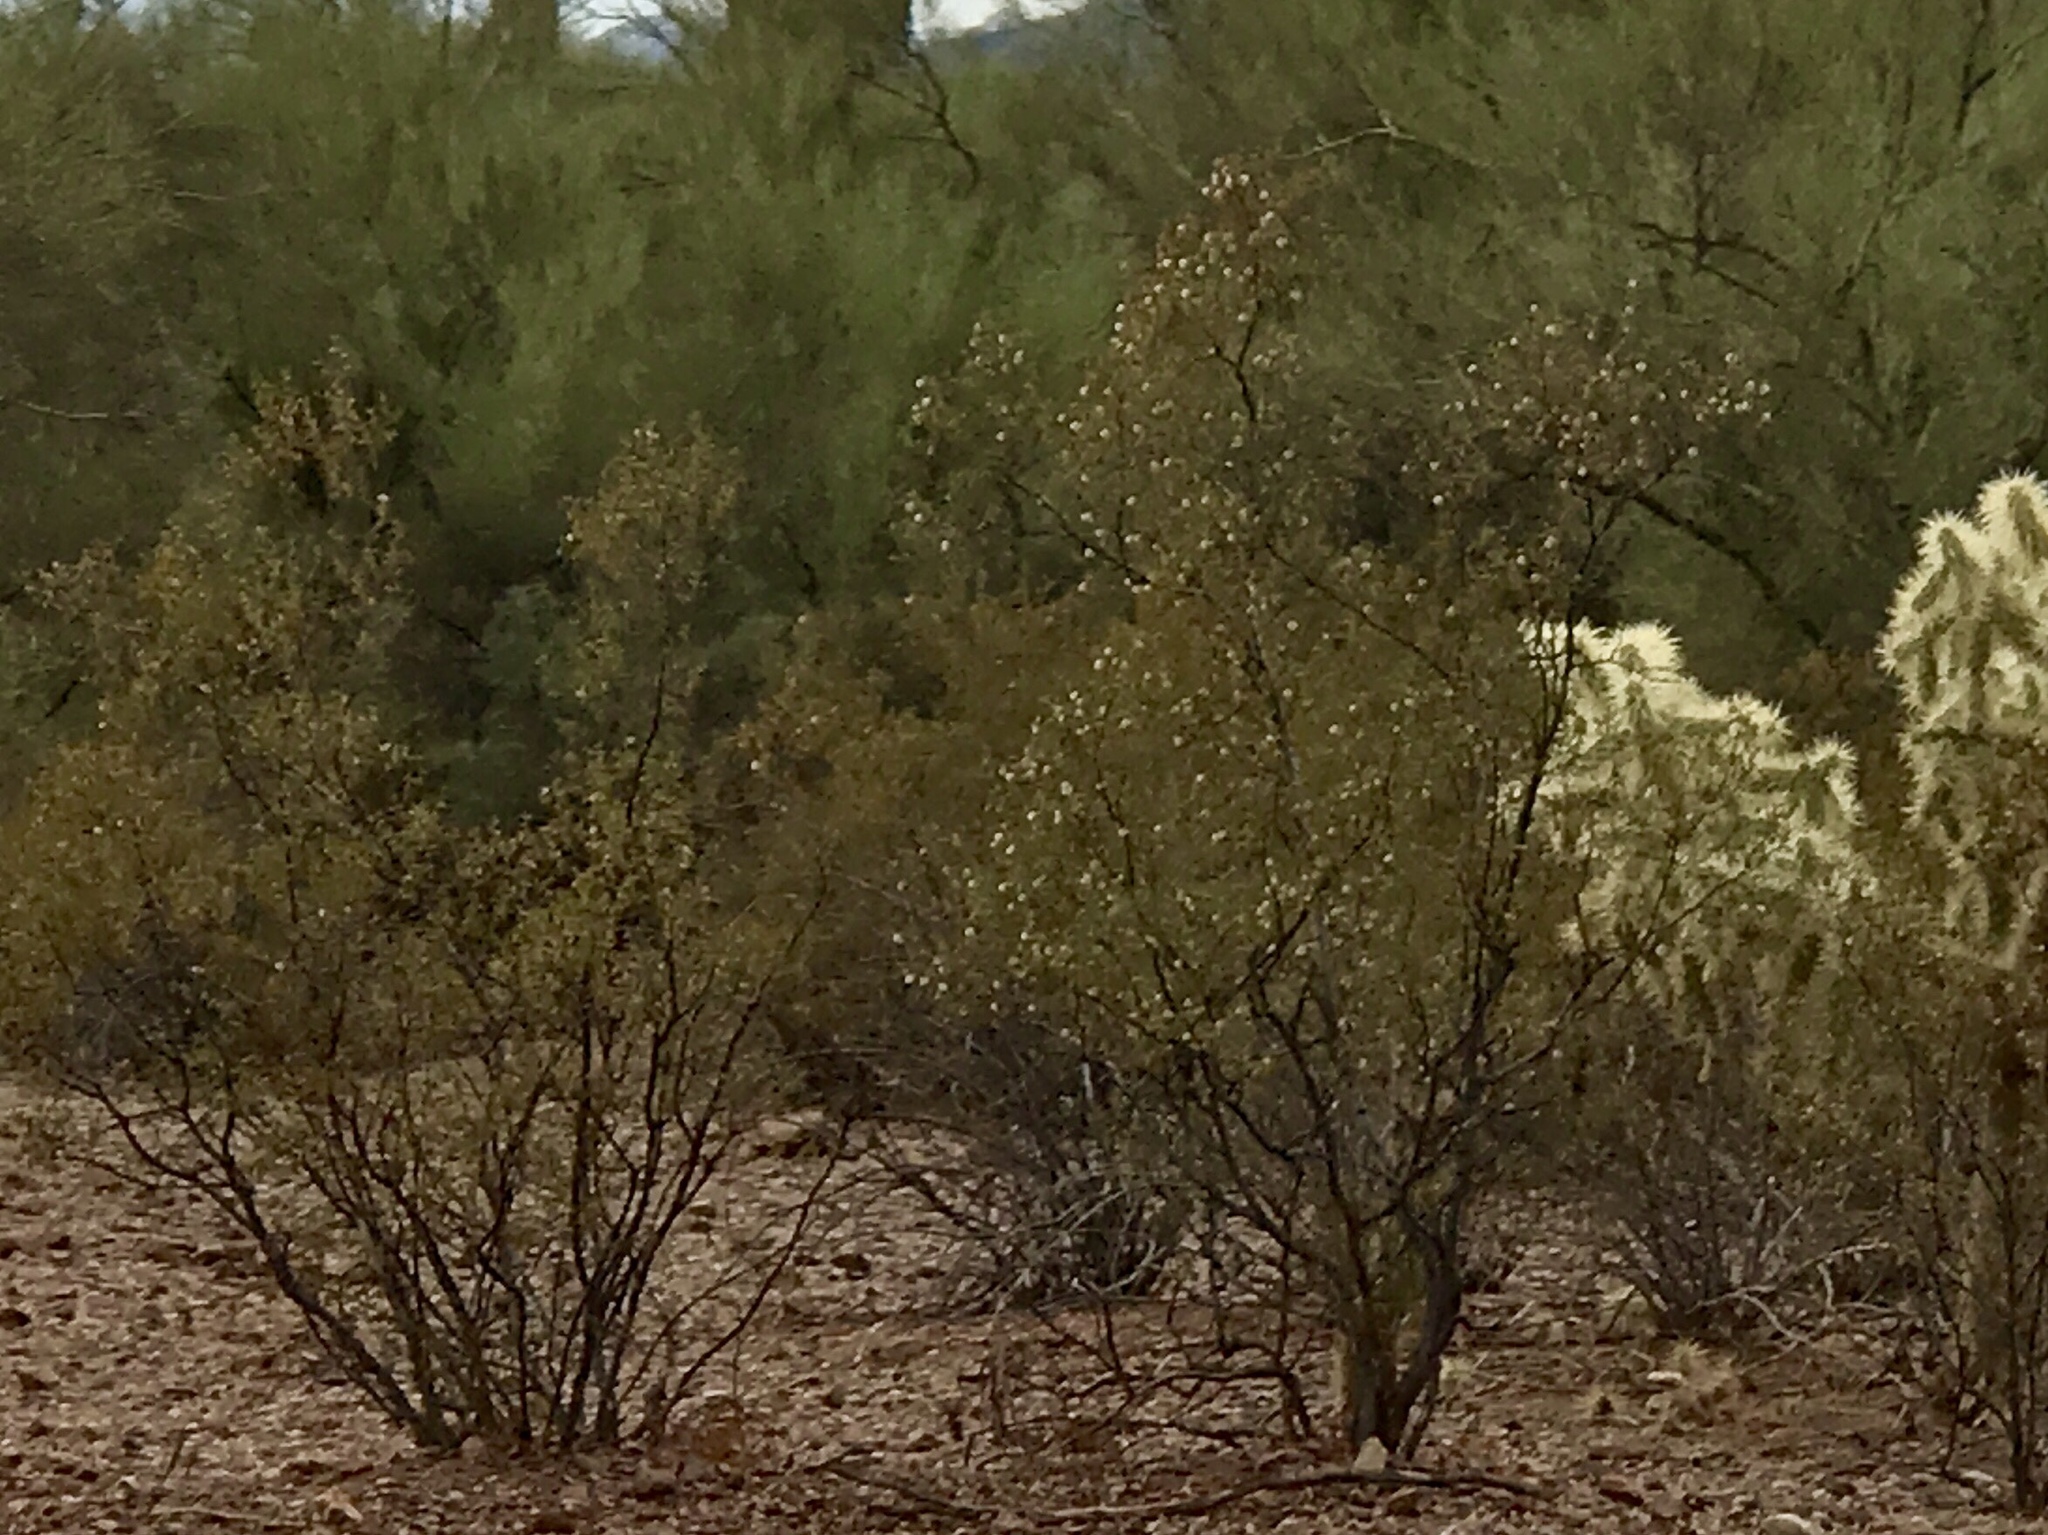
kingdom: Plantae
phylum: Tracheophyta
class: Magnoliopsida
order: Zygophyllales
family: Zygophyllaceae
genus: Larrea
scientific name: Larrea tridentata
